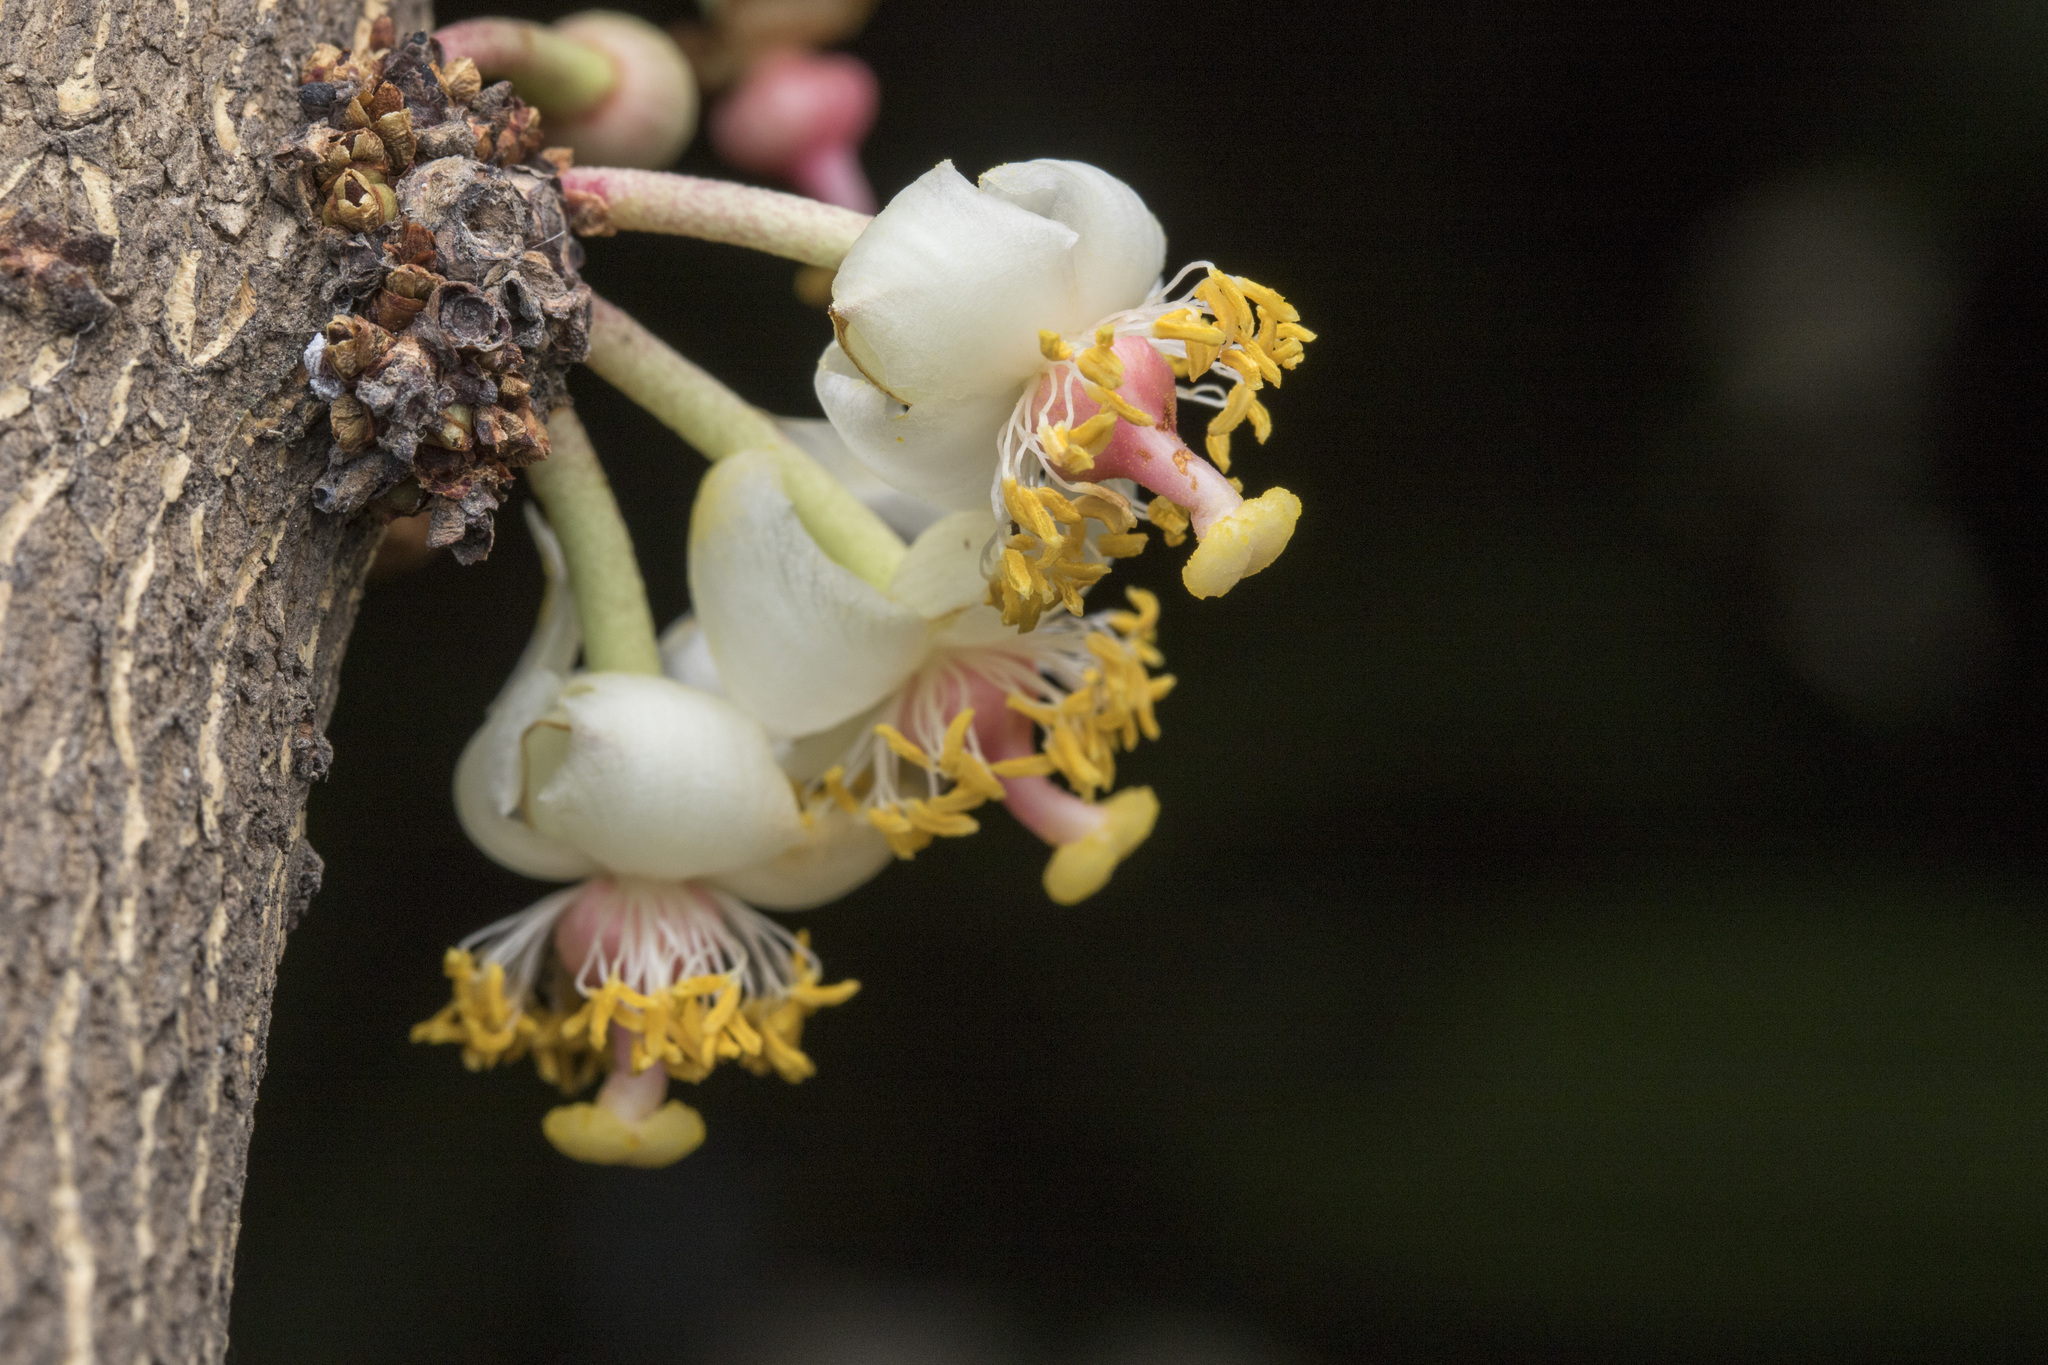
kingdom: Plantae
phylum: Tracheophyta
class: Magnoliopsida
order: Malpighiales
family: Calophyllaceae
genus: Mammea
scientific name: Mammea suriga
